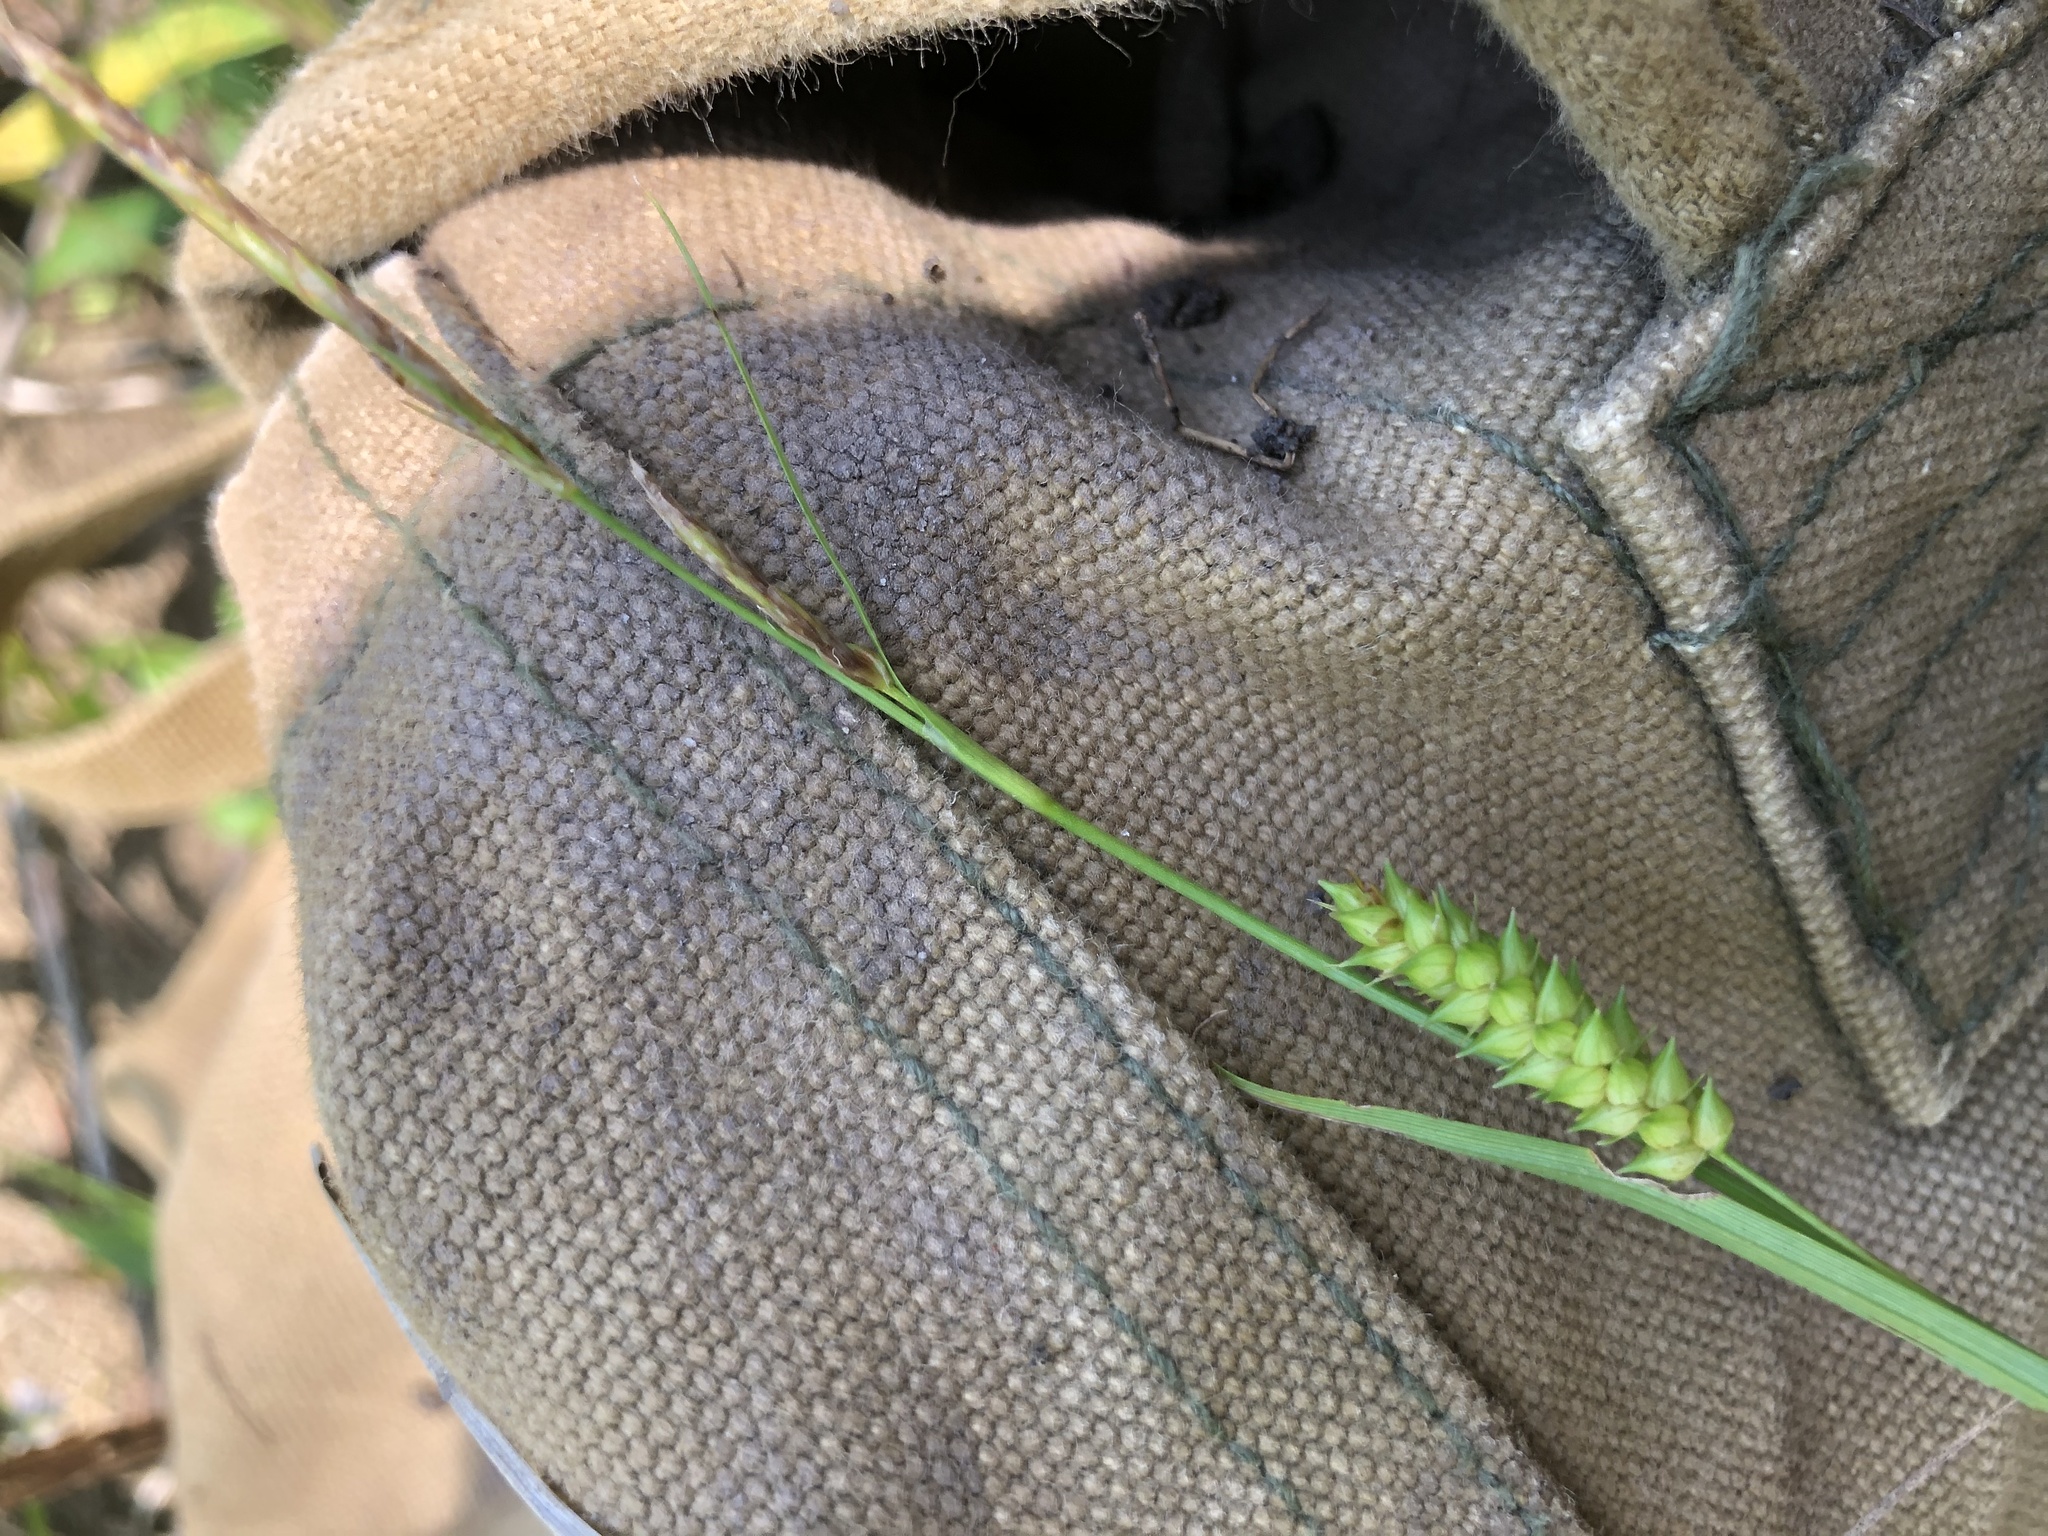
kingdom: Plantae
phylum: Tracheophyta
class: Liliopsida
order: Poales
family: Cyperaceae
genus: Carex
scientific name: Carex microdonta
